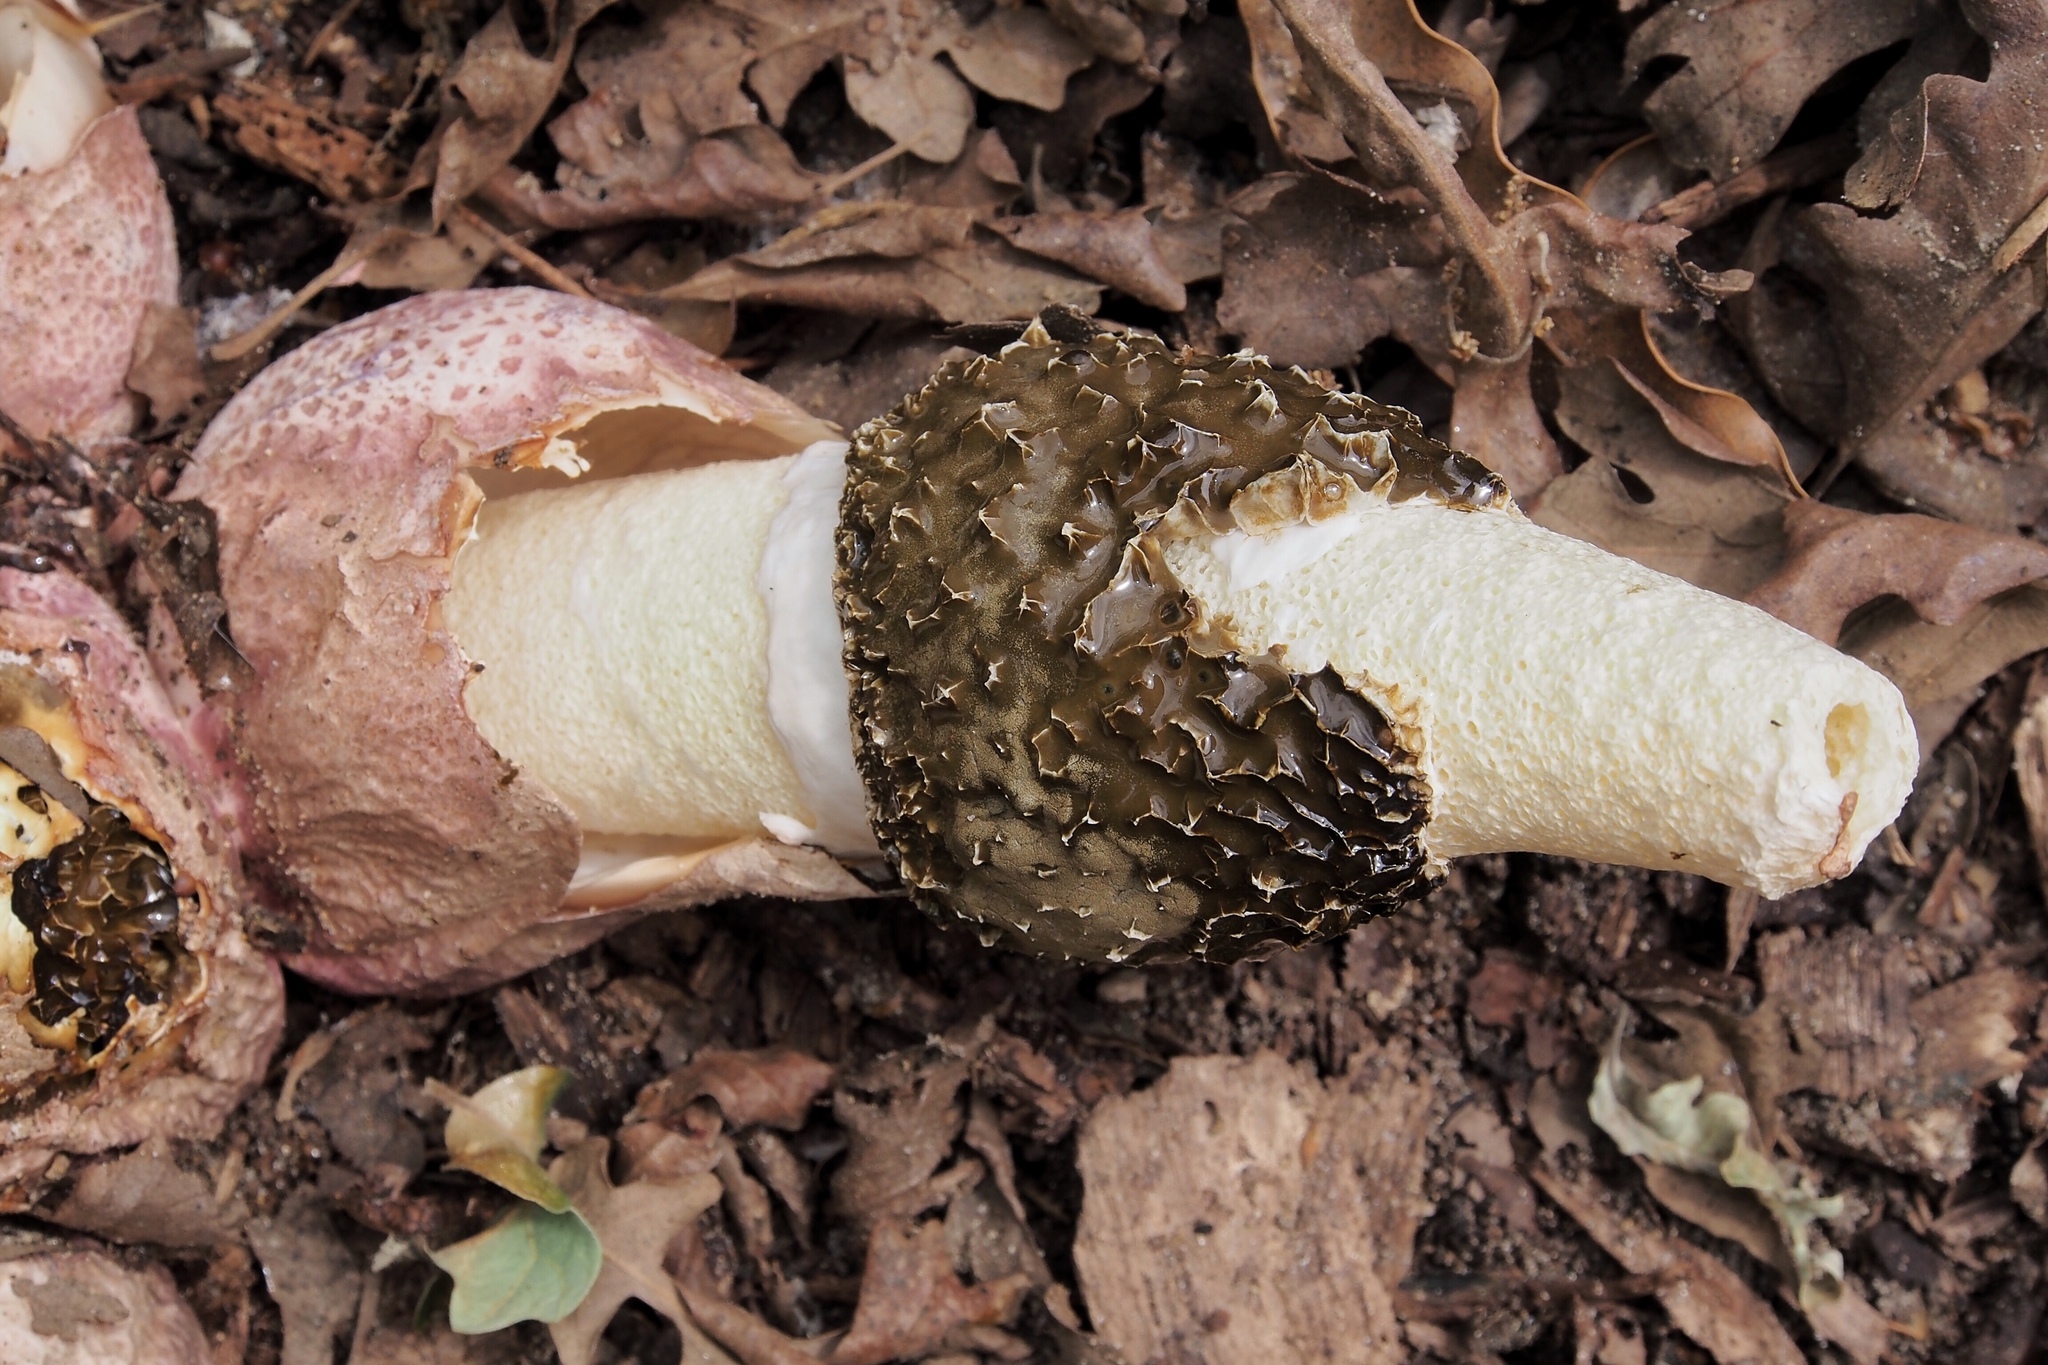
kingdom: Fungi
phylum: Basidiomycota
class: Agaricomycetes
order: Phallales
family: Phallaceae
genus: Phallus
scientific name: Phallus hadriani
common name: Sand stinkhorn
